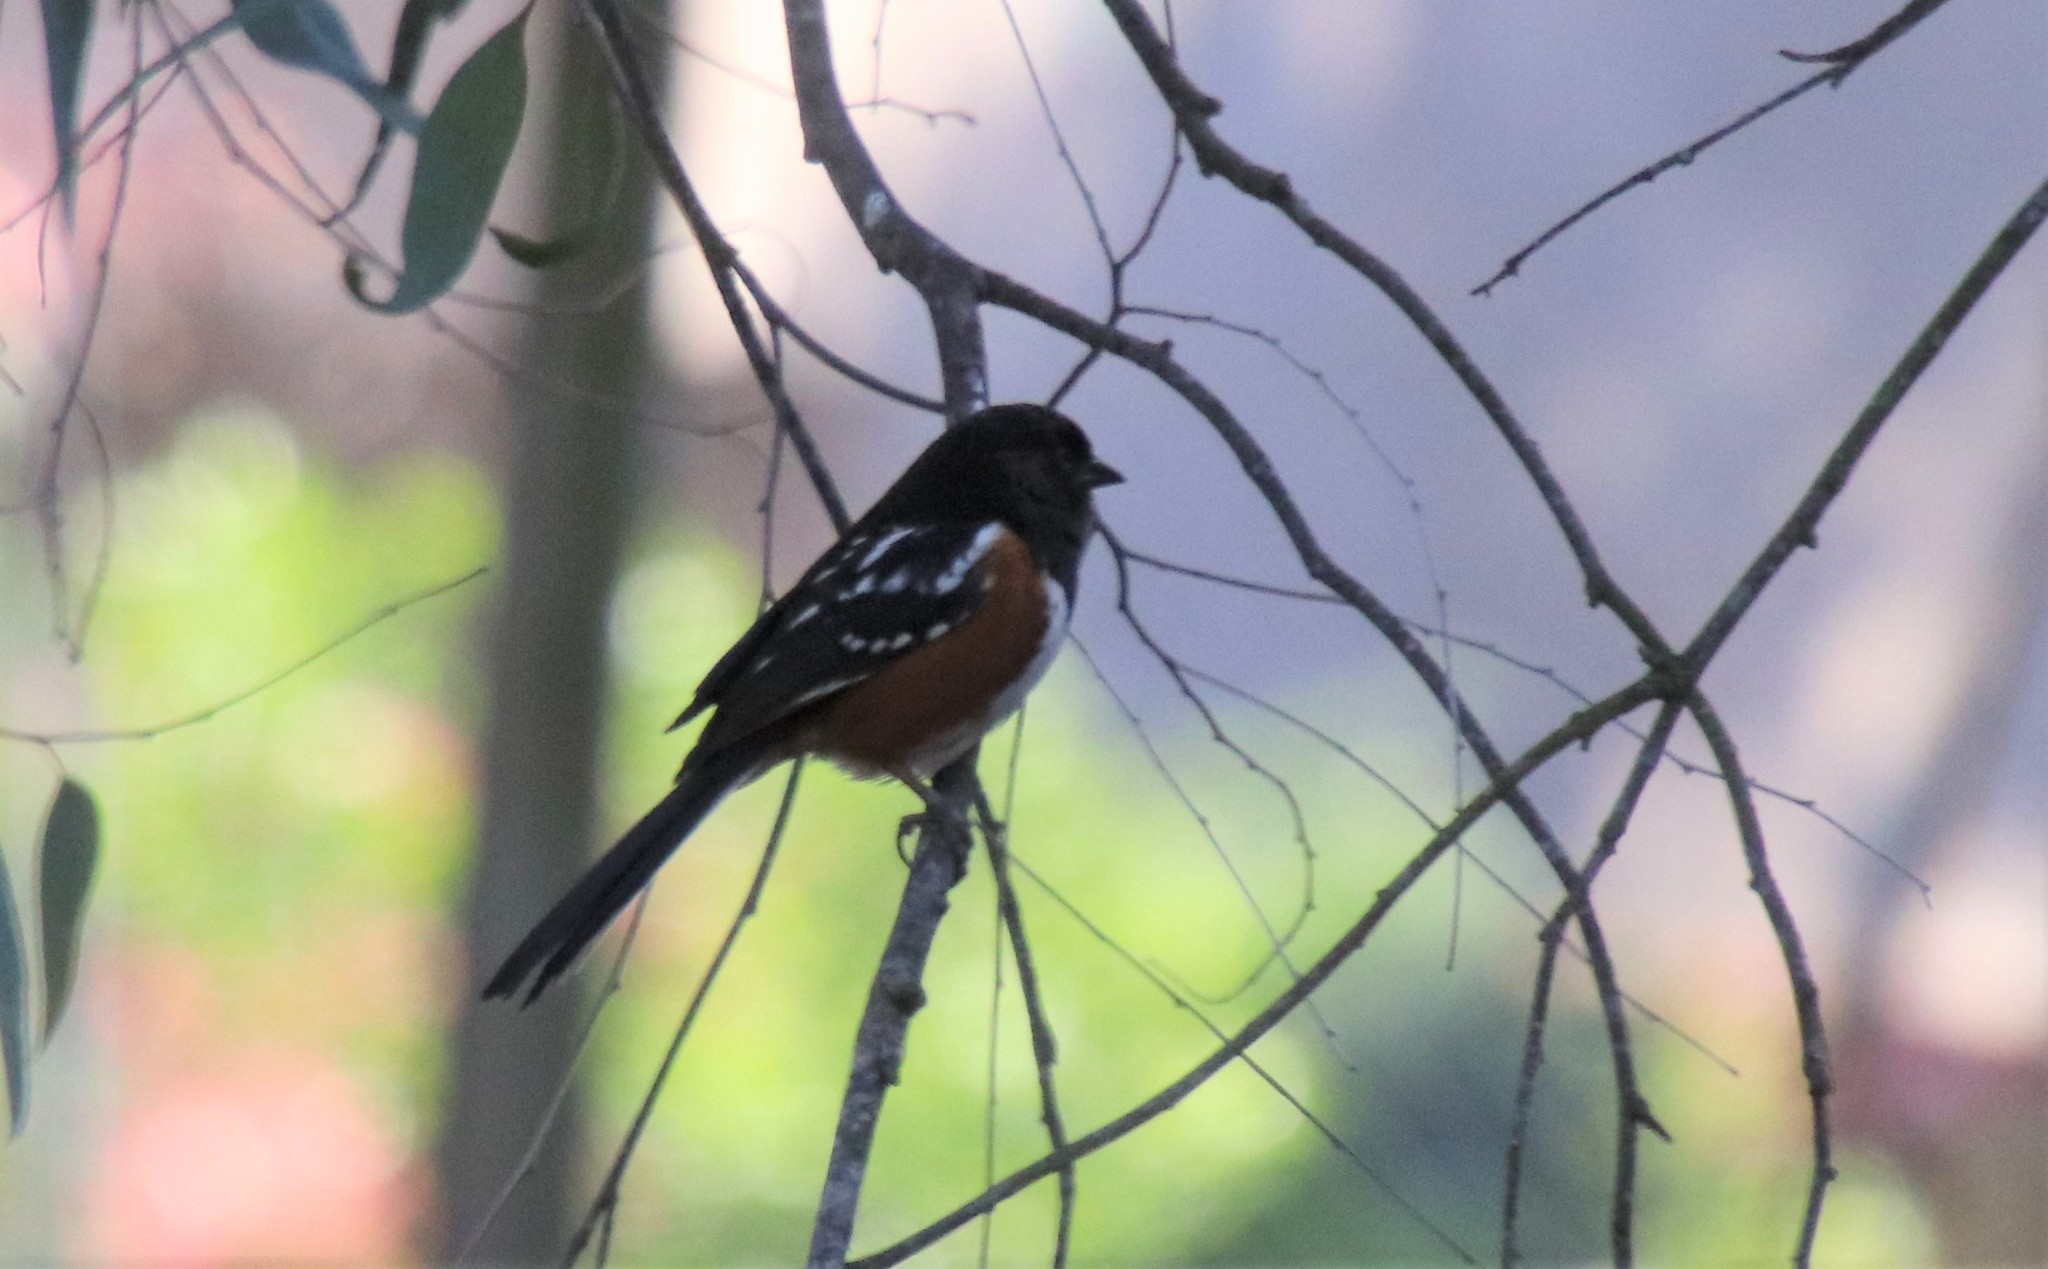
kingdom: Animalia
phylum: Chordata
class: Aves
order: Passeriformes
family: Passerellidae
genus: Pipilo
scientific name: Pipilo maculatus
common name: Spotted towhee
